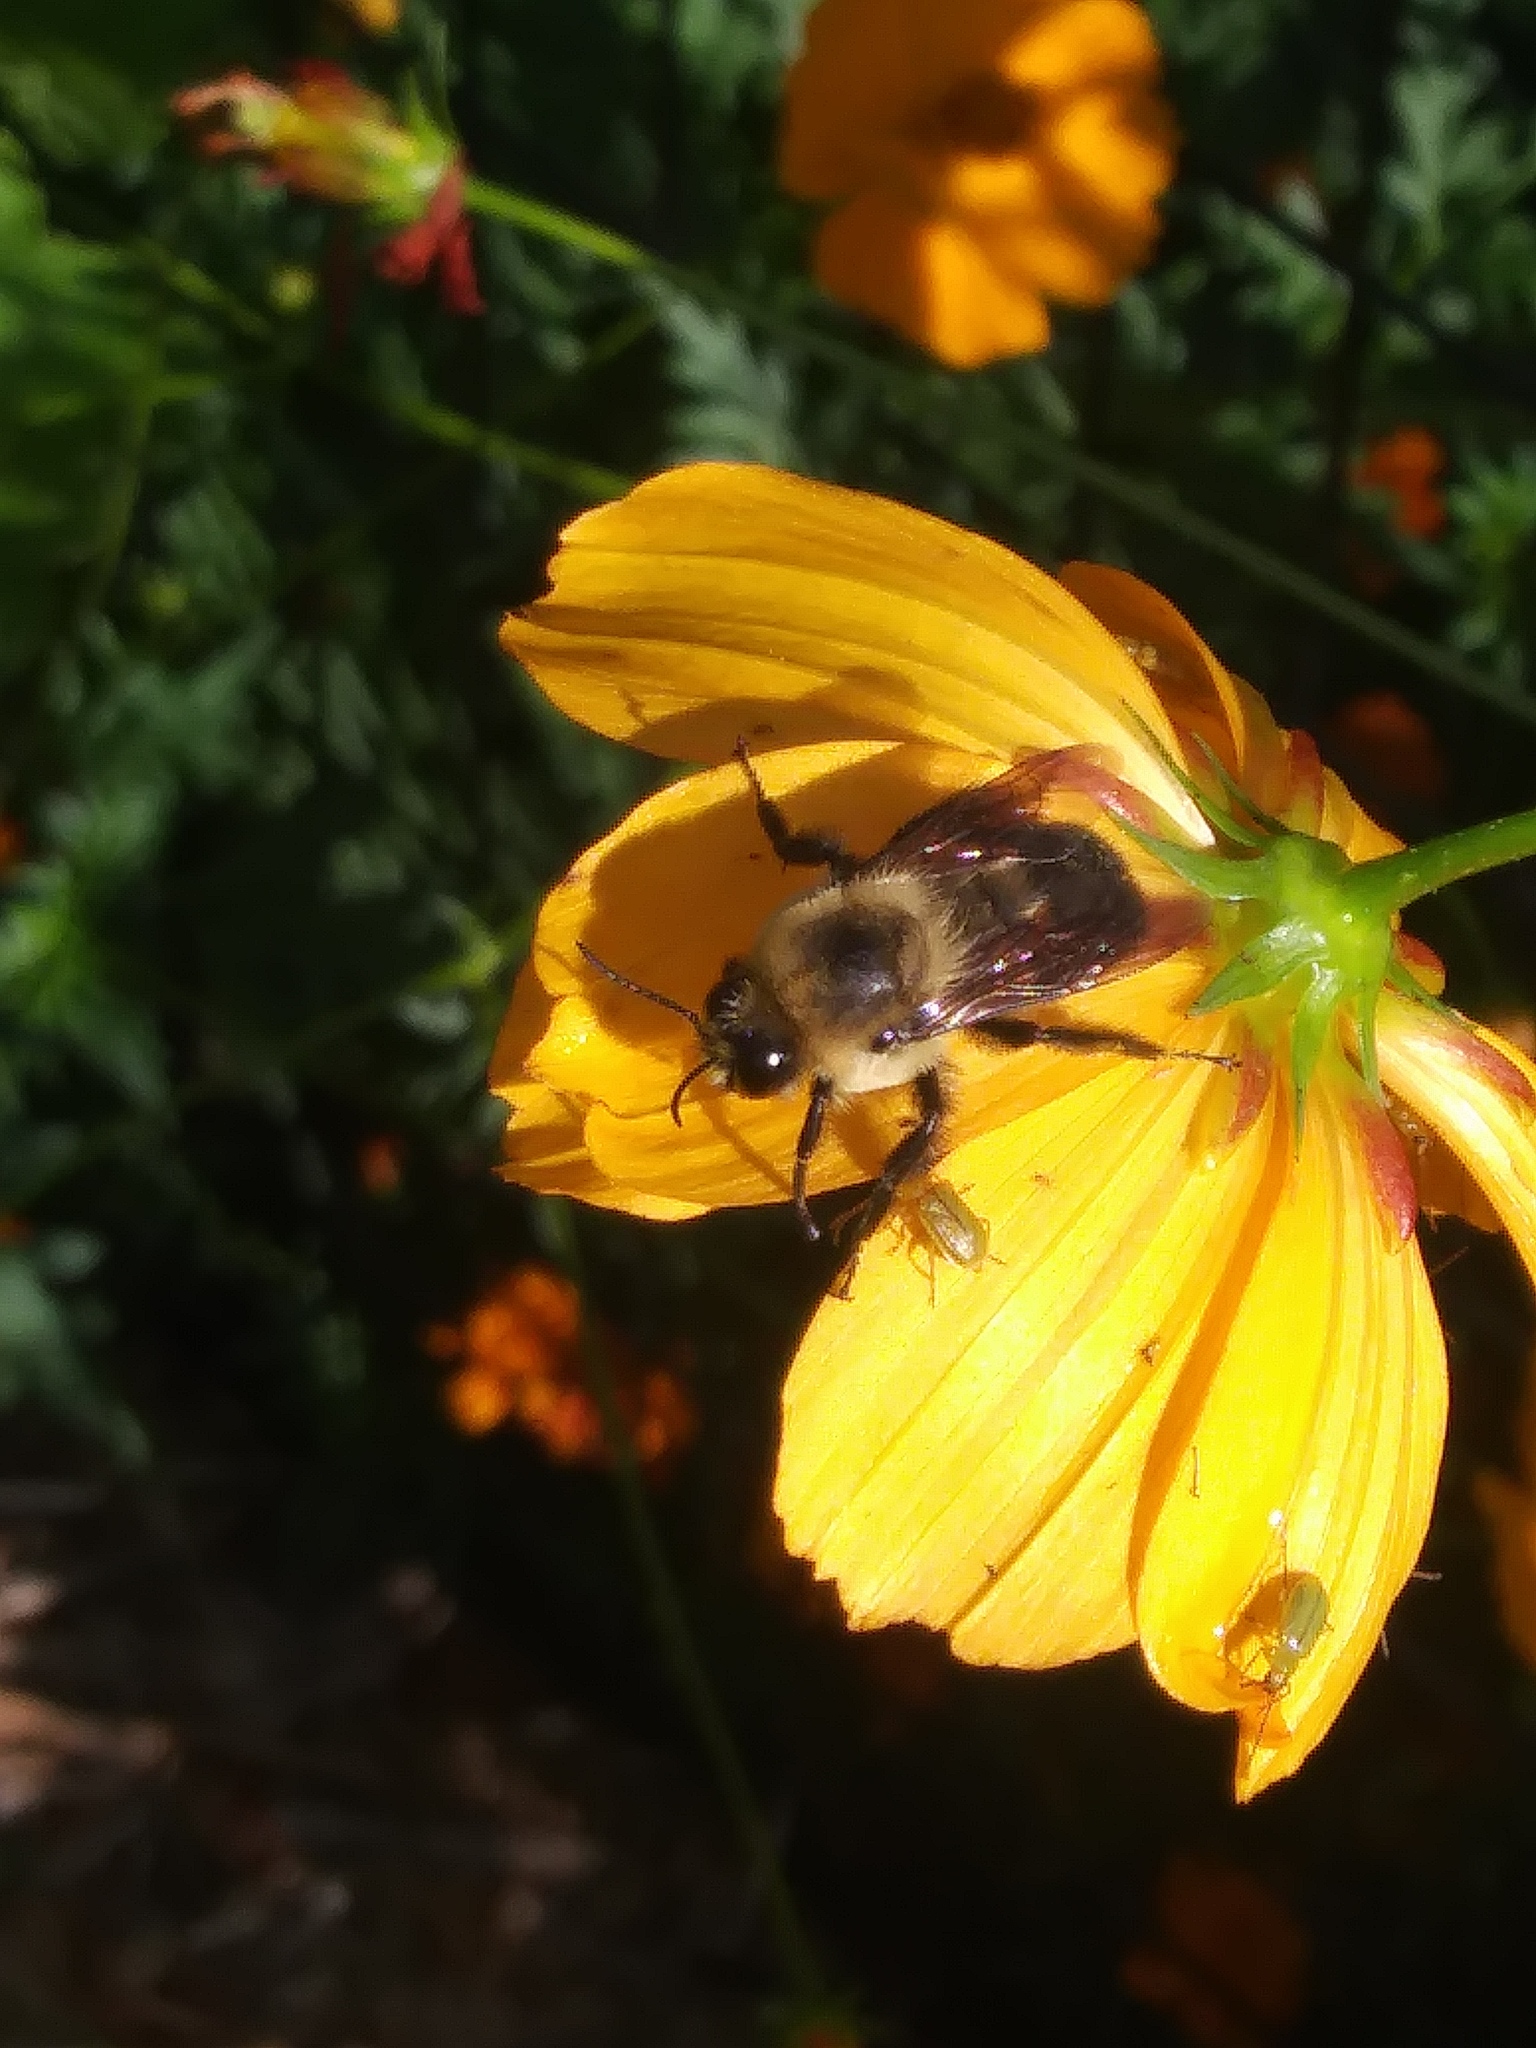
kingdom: Animalia
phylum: Arthropoda
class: Insecta
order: Hymenoptera
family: Apidae
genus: Bombus
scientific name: Bombus griseocollis
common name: Brown-belted bumble bee
